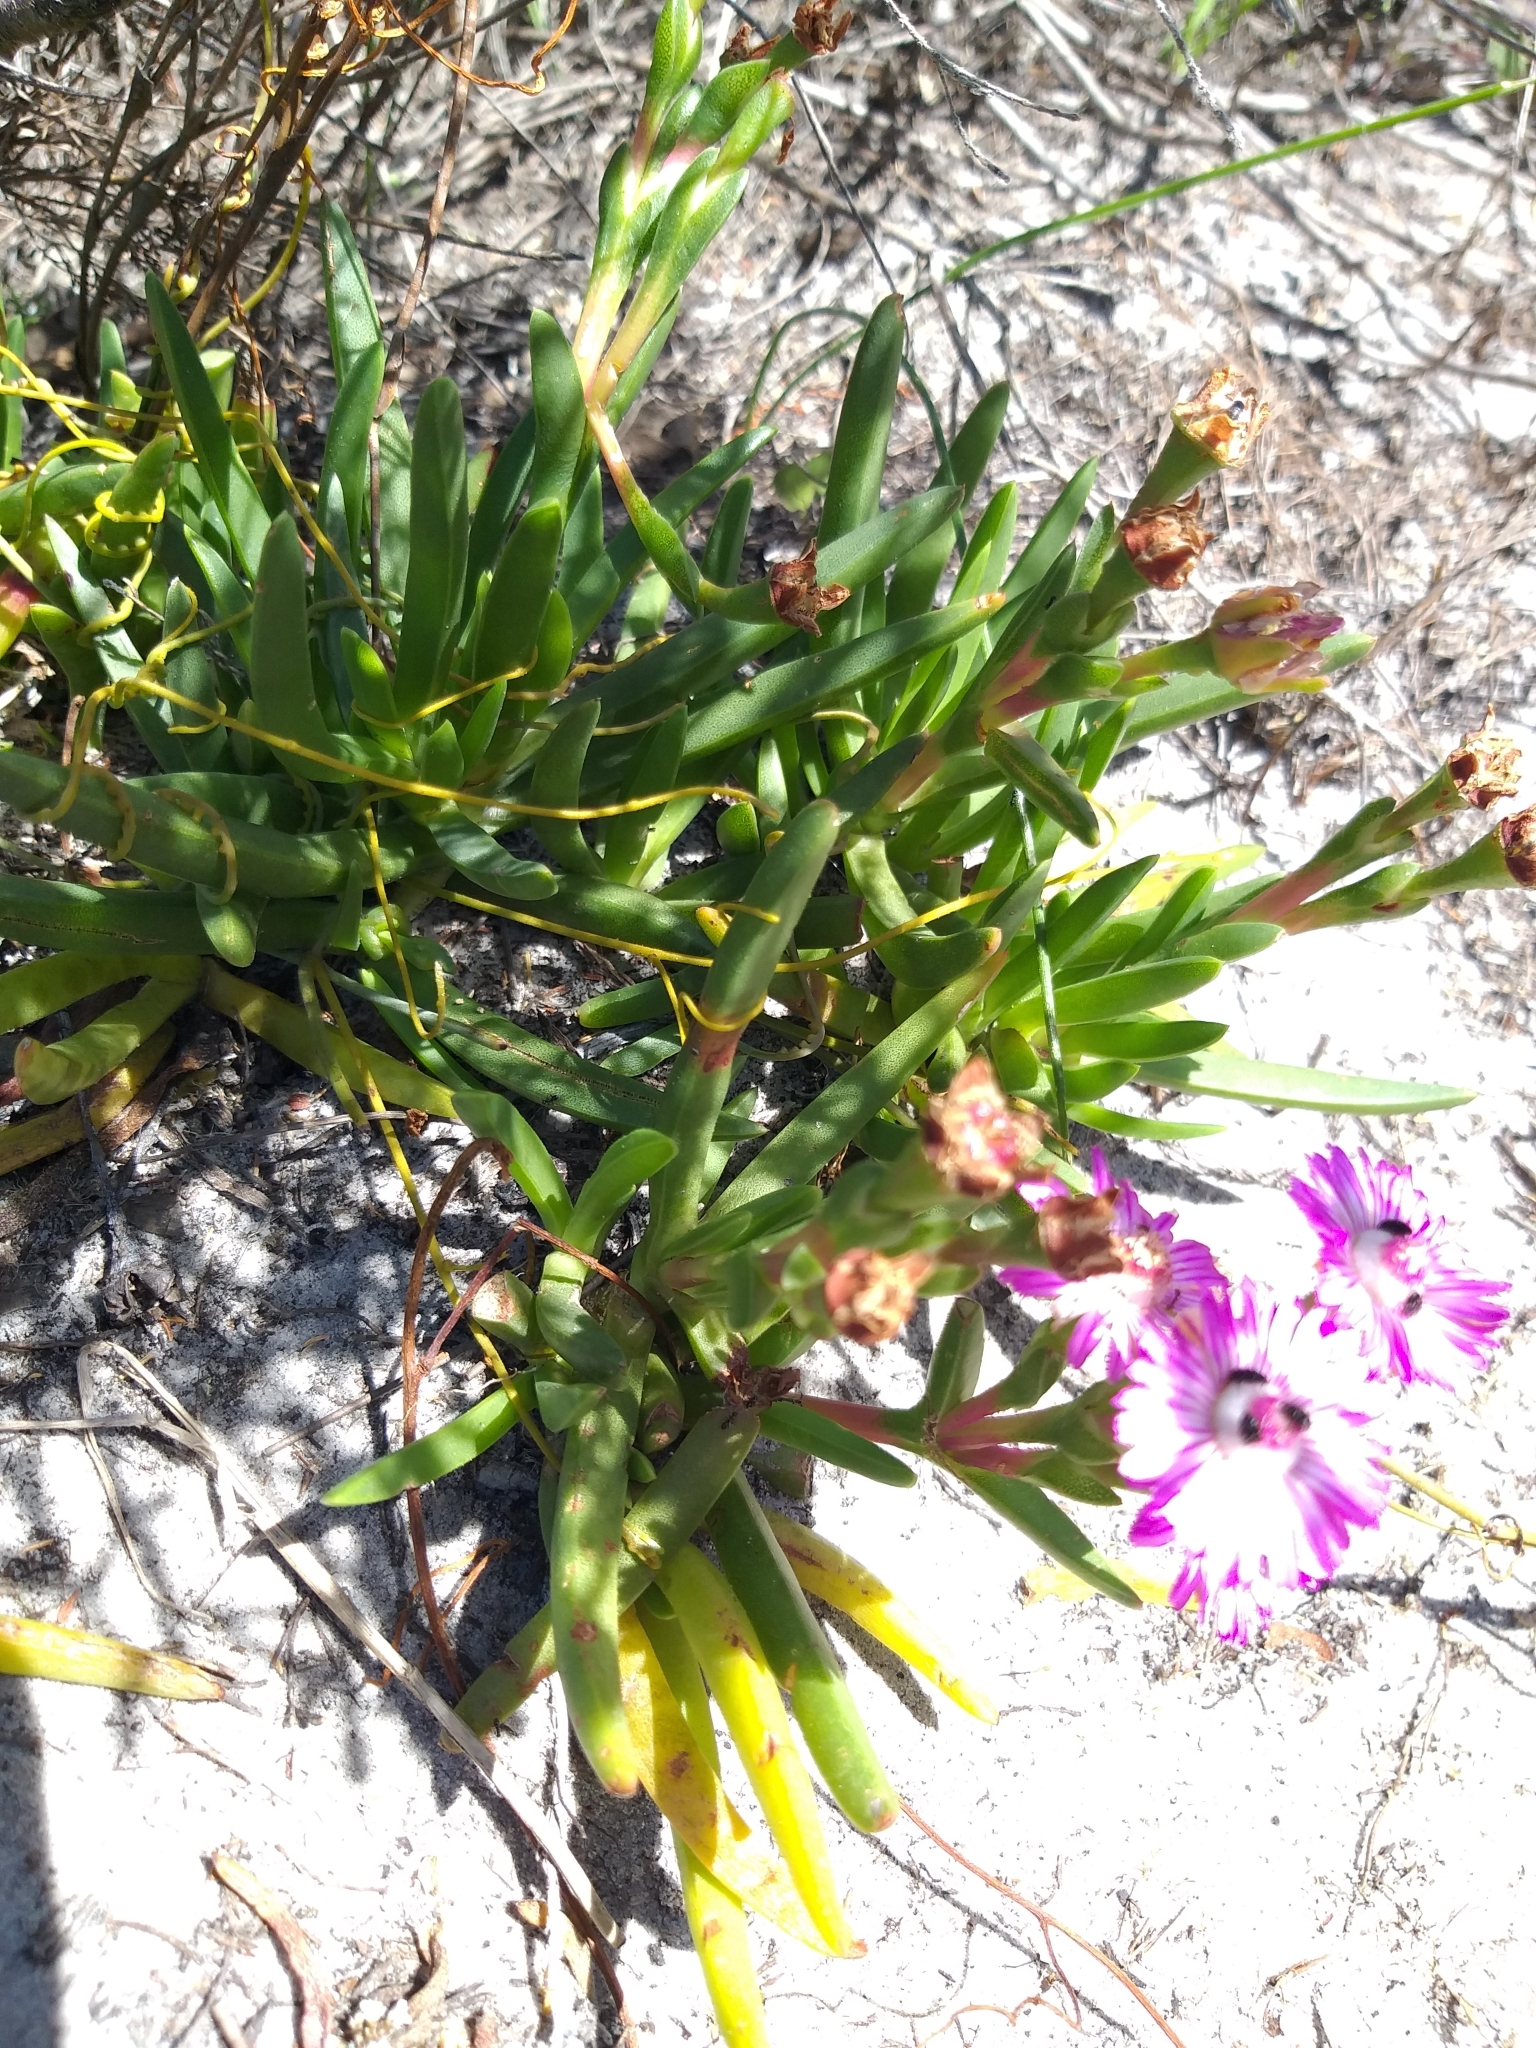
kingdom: Plantae
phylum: Tracheophyta
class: Magnoliopsida
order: Caryophyllales
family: Aizoaceae
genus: Ruschia
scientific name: Ruschia sarmentosa
